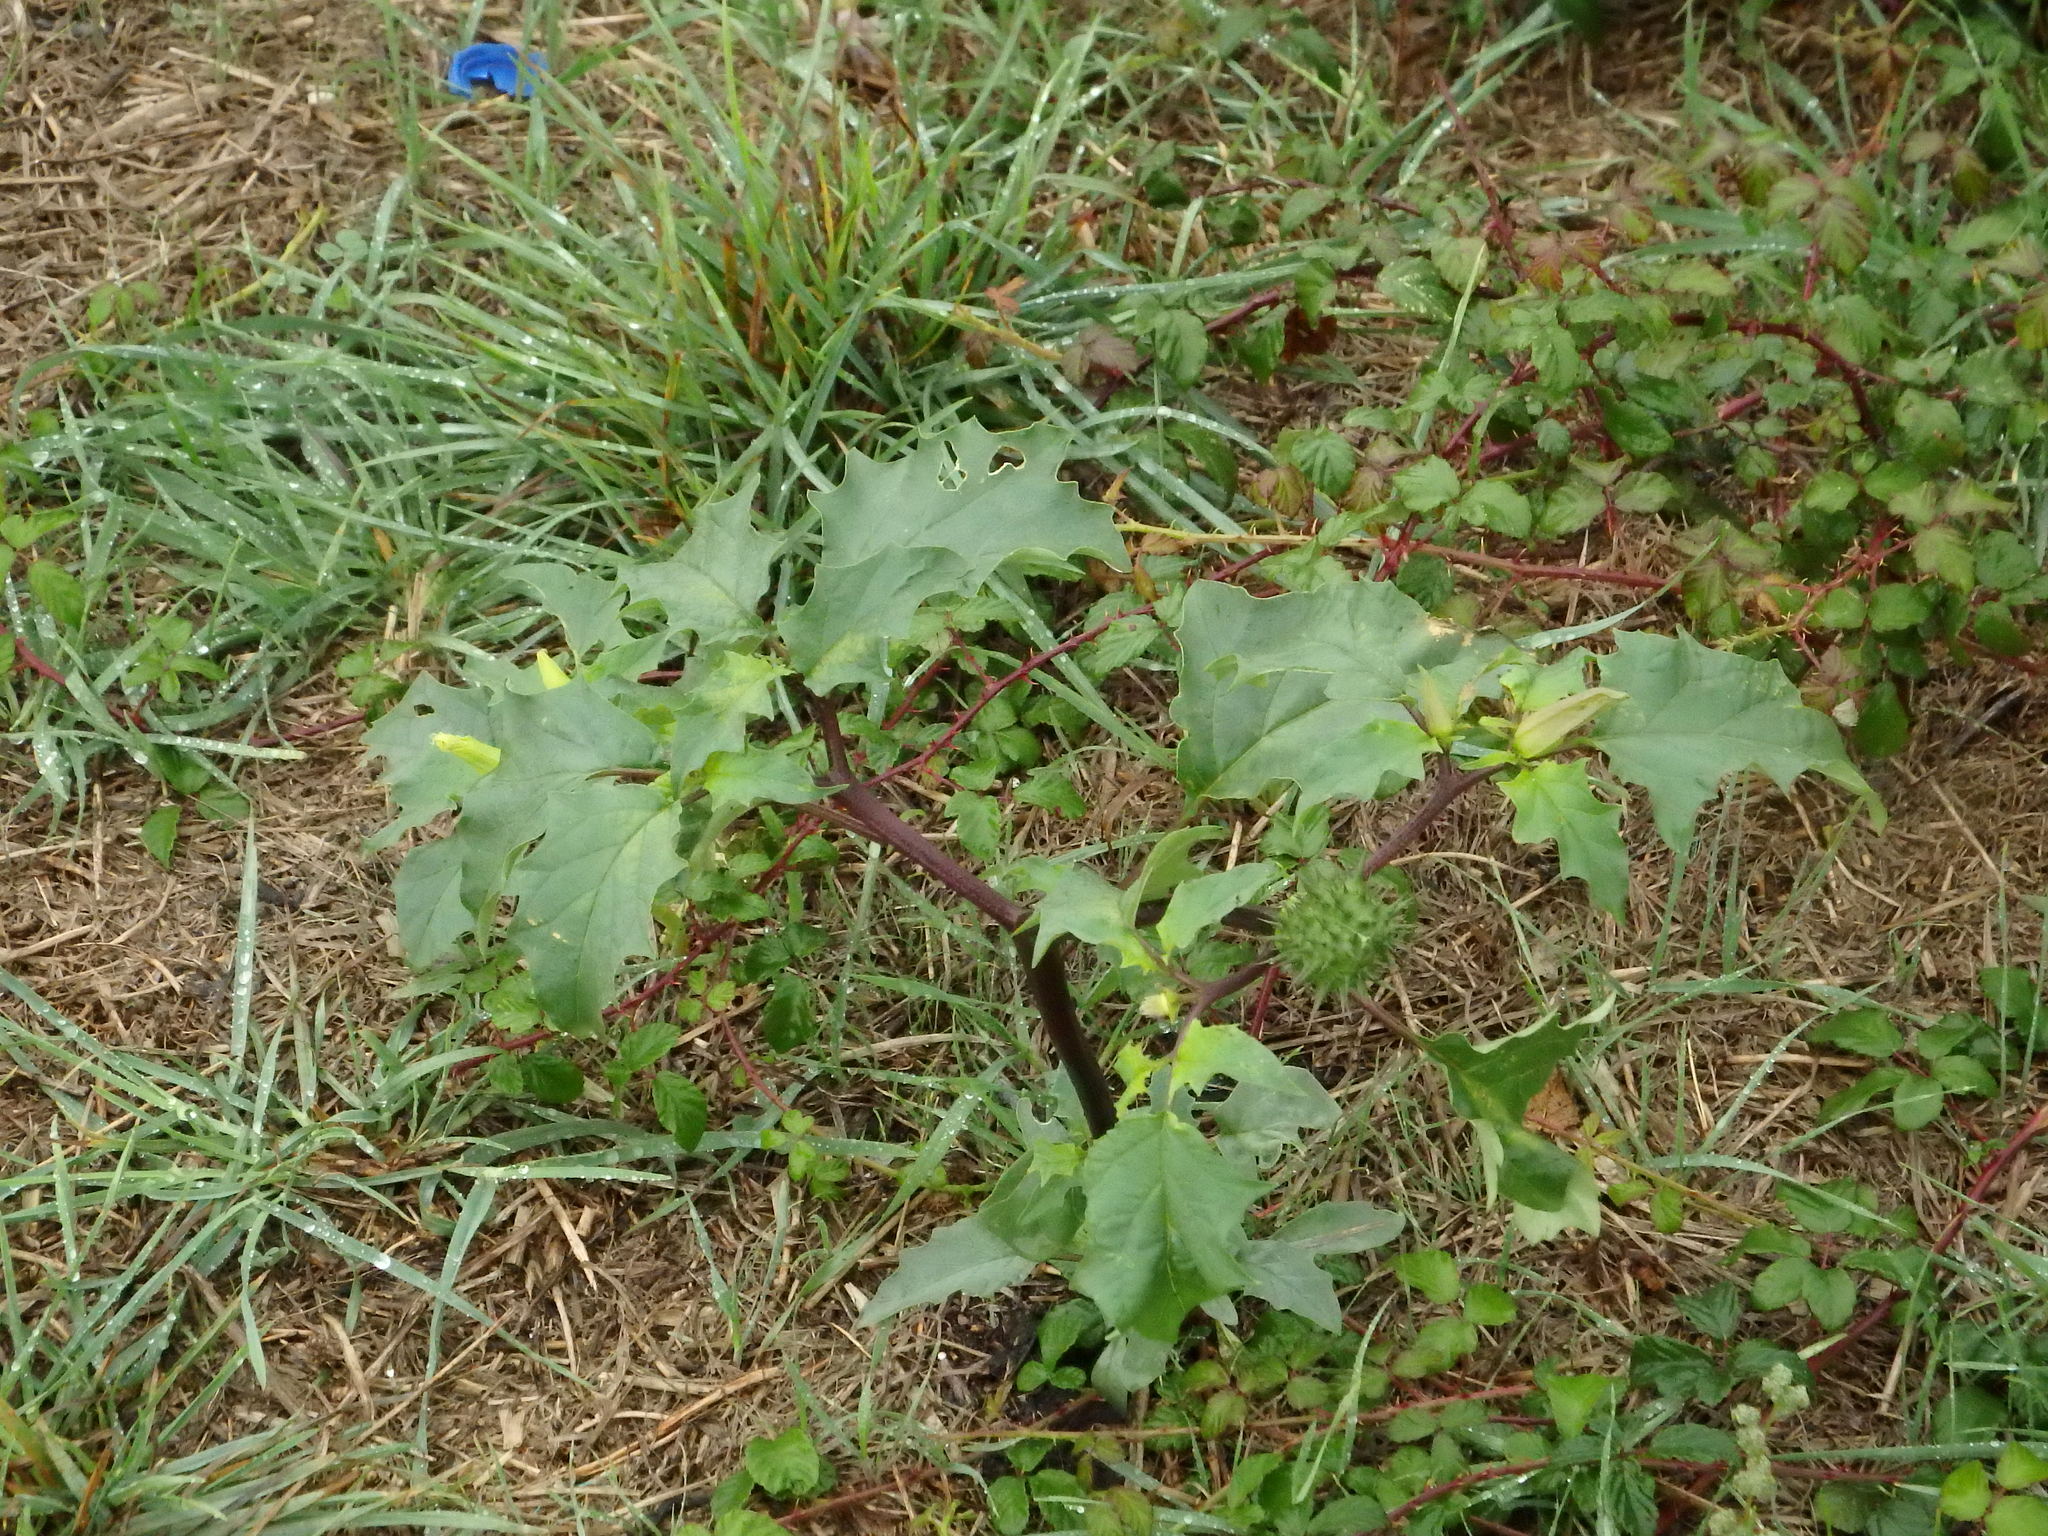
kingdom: Plantae
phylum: Tracheophyta
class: Magnoliopsida
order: Solanales
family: Solanaceae
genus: Datura
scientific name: Datura stramonium
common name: Thorn-apple
